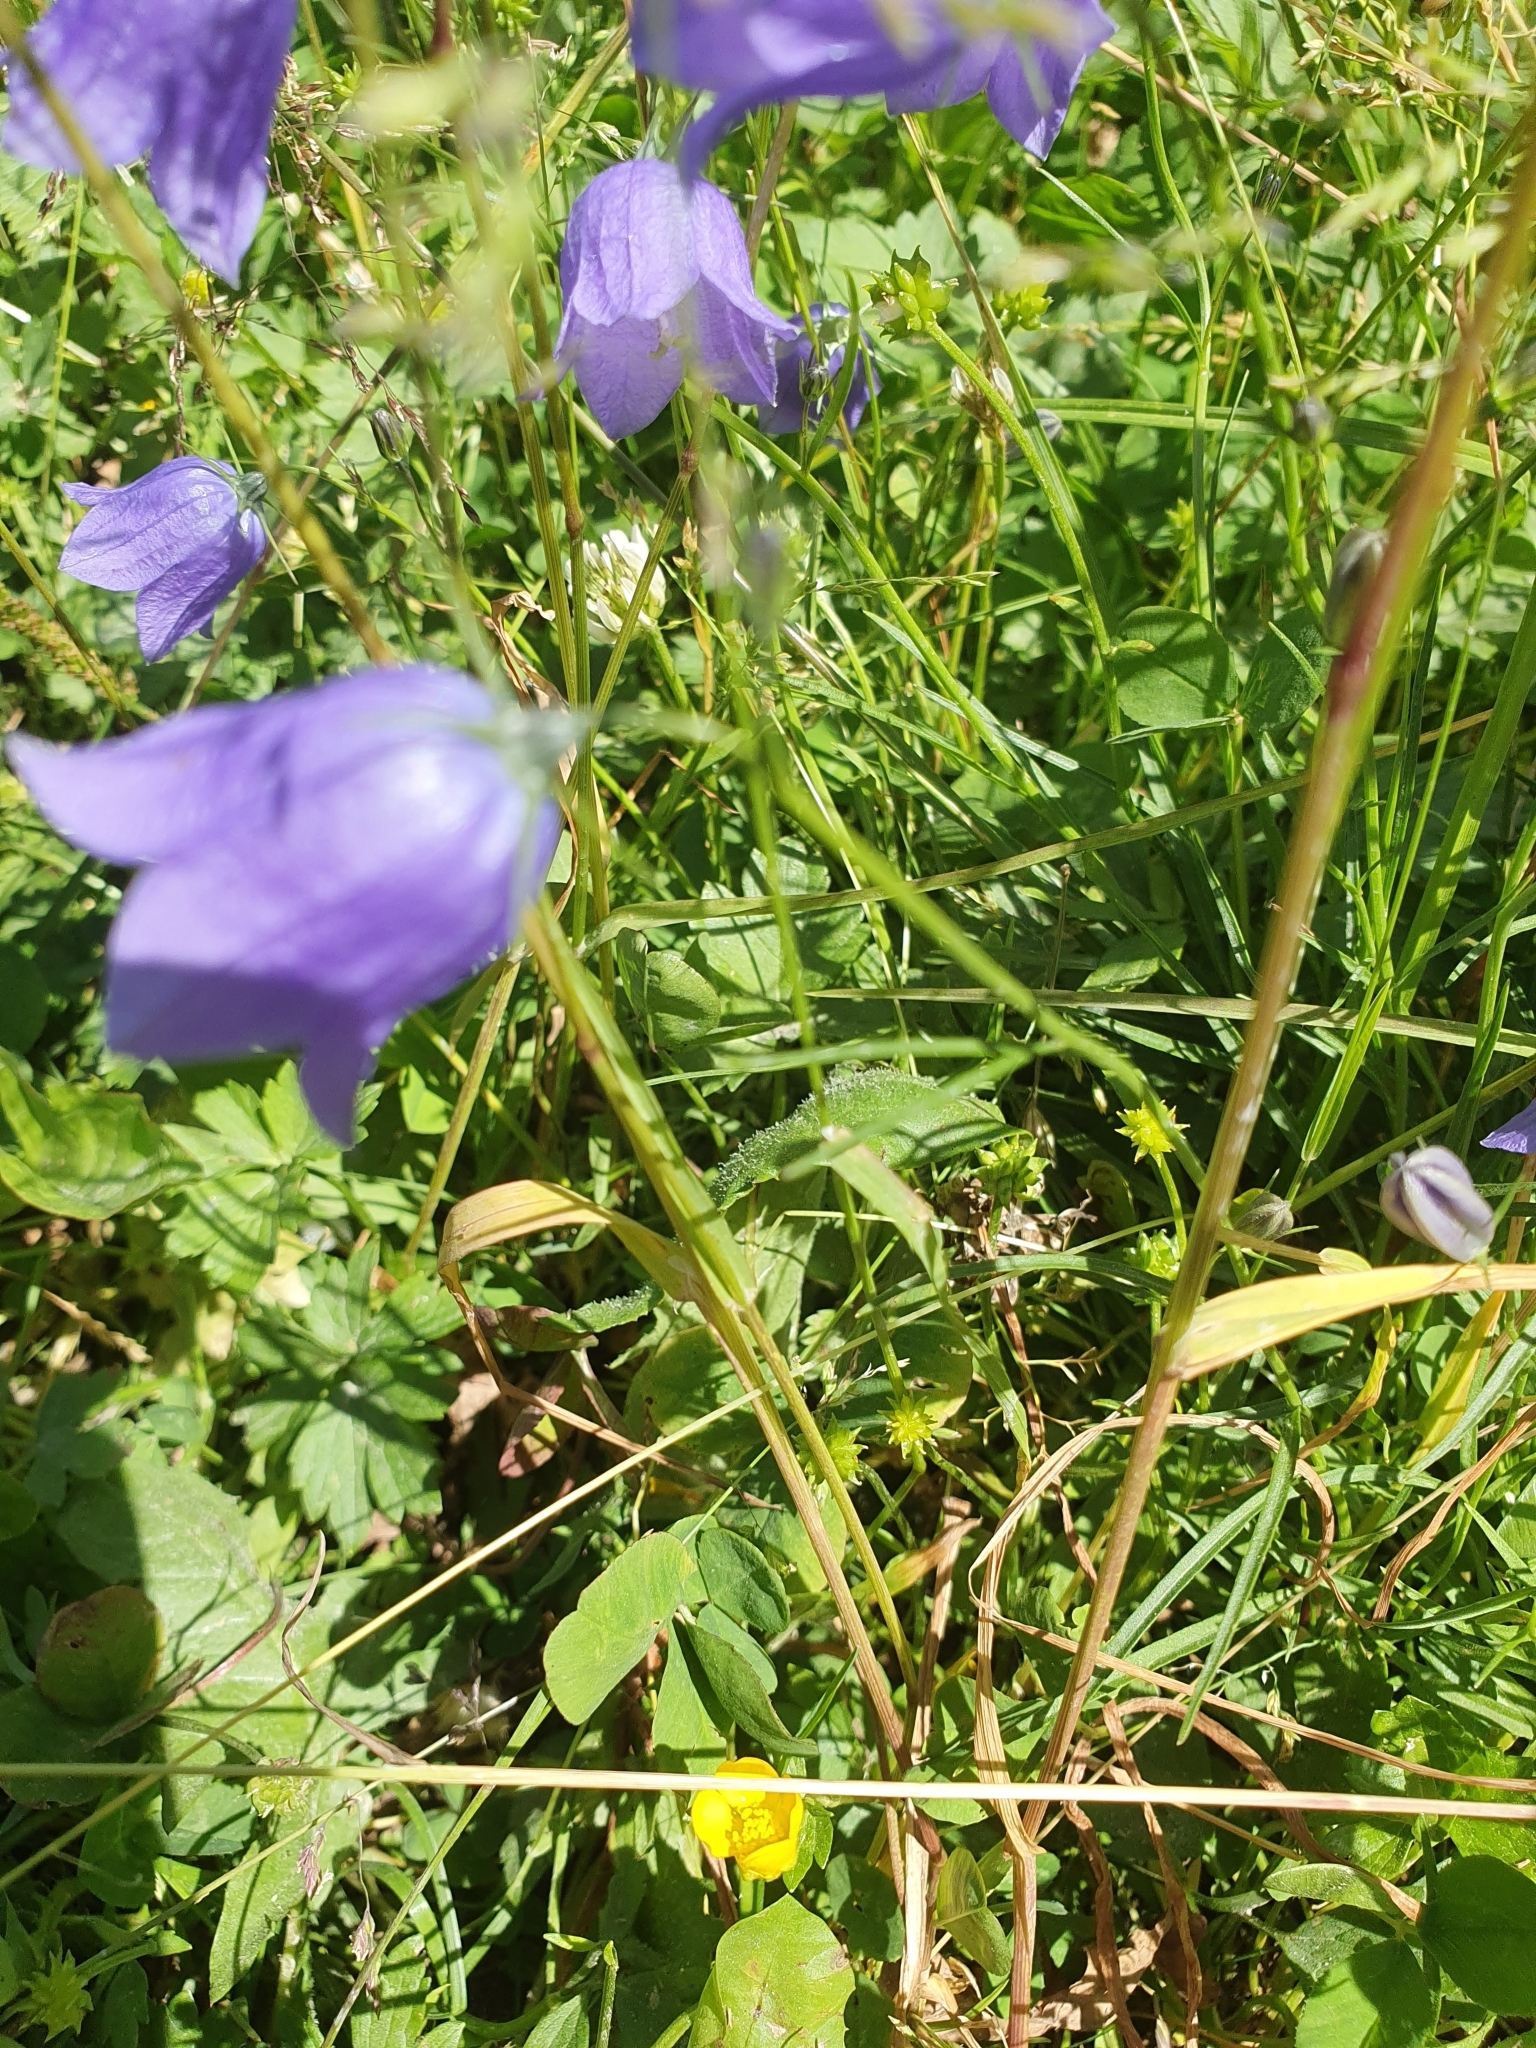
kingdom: Plantae
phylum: Tracheophyta
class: Magnoliopsida
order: Asterales
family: Campanulaceae
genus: Campanula
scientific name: Campanula rotundifolia
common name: Harebell
